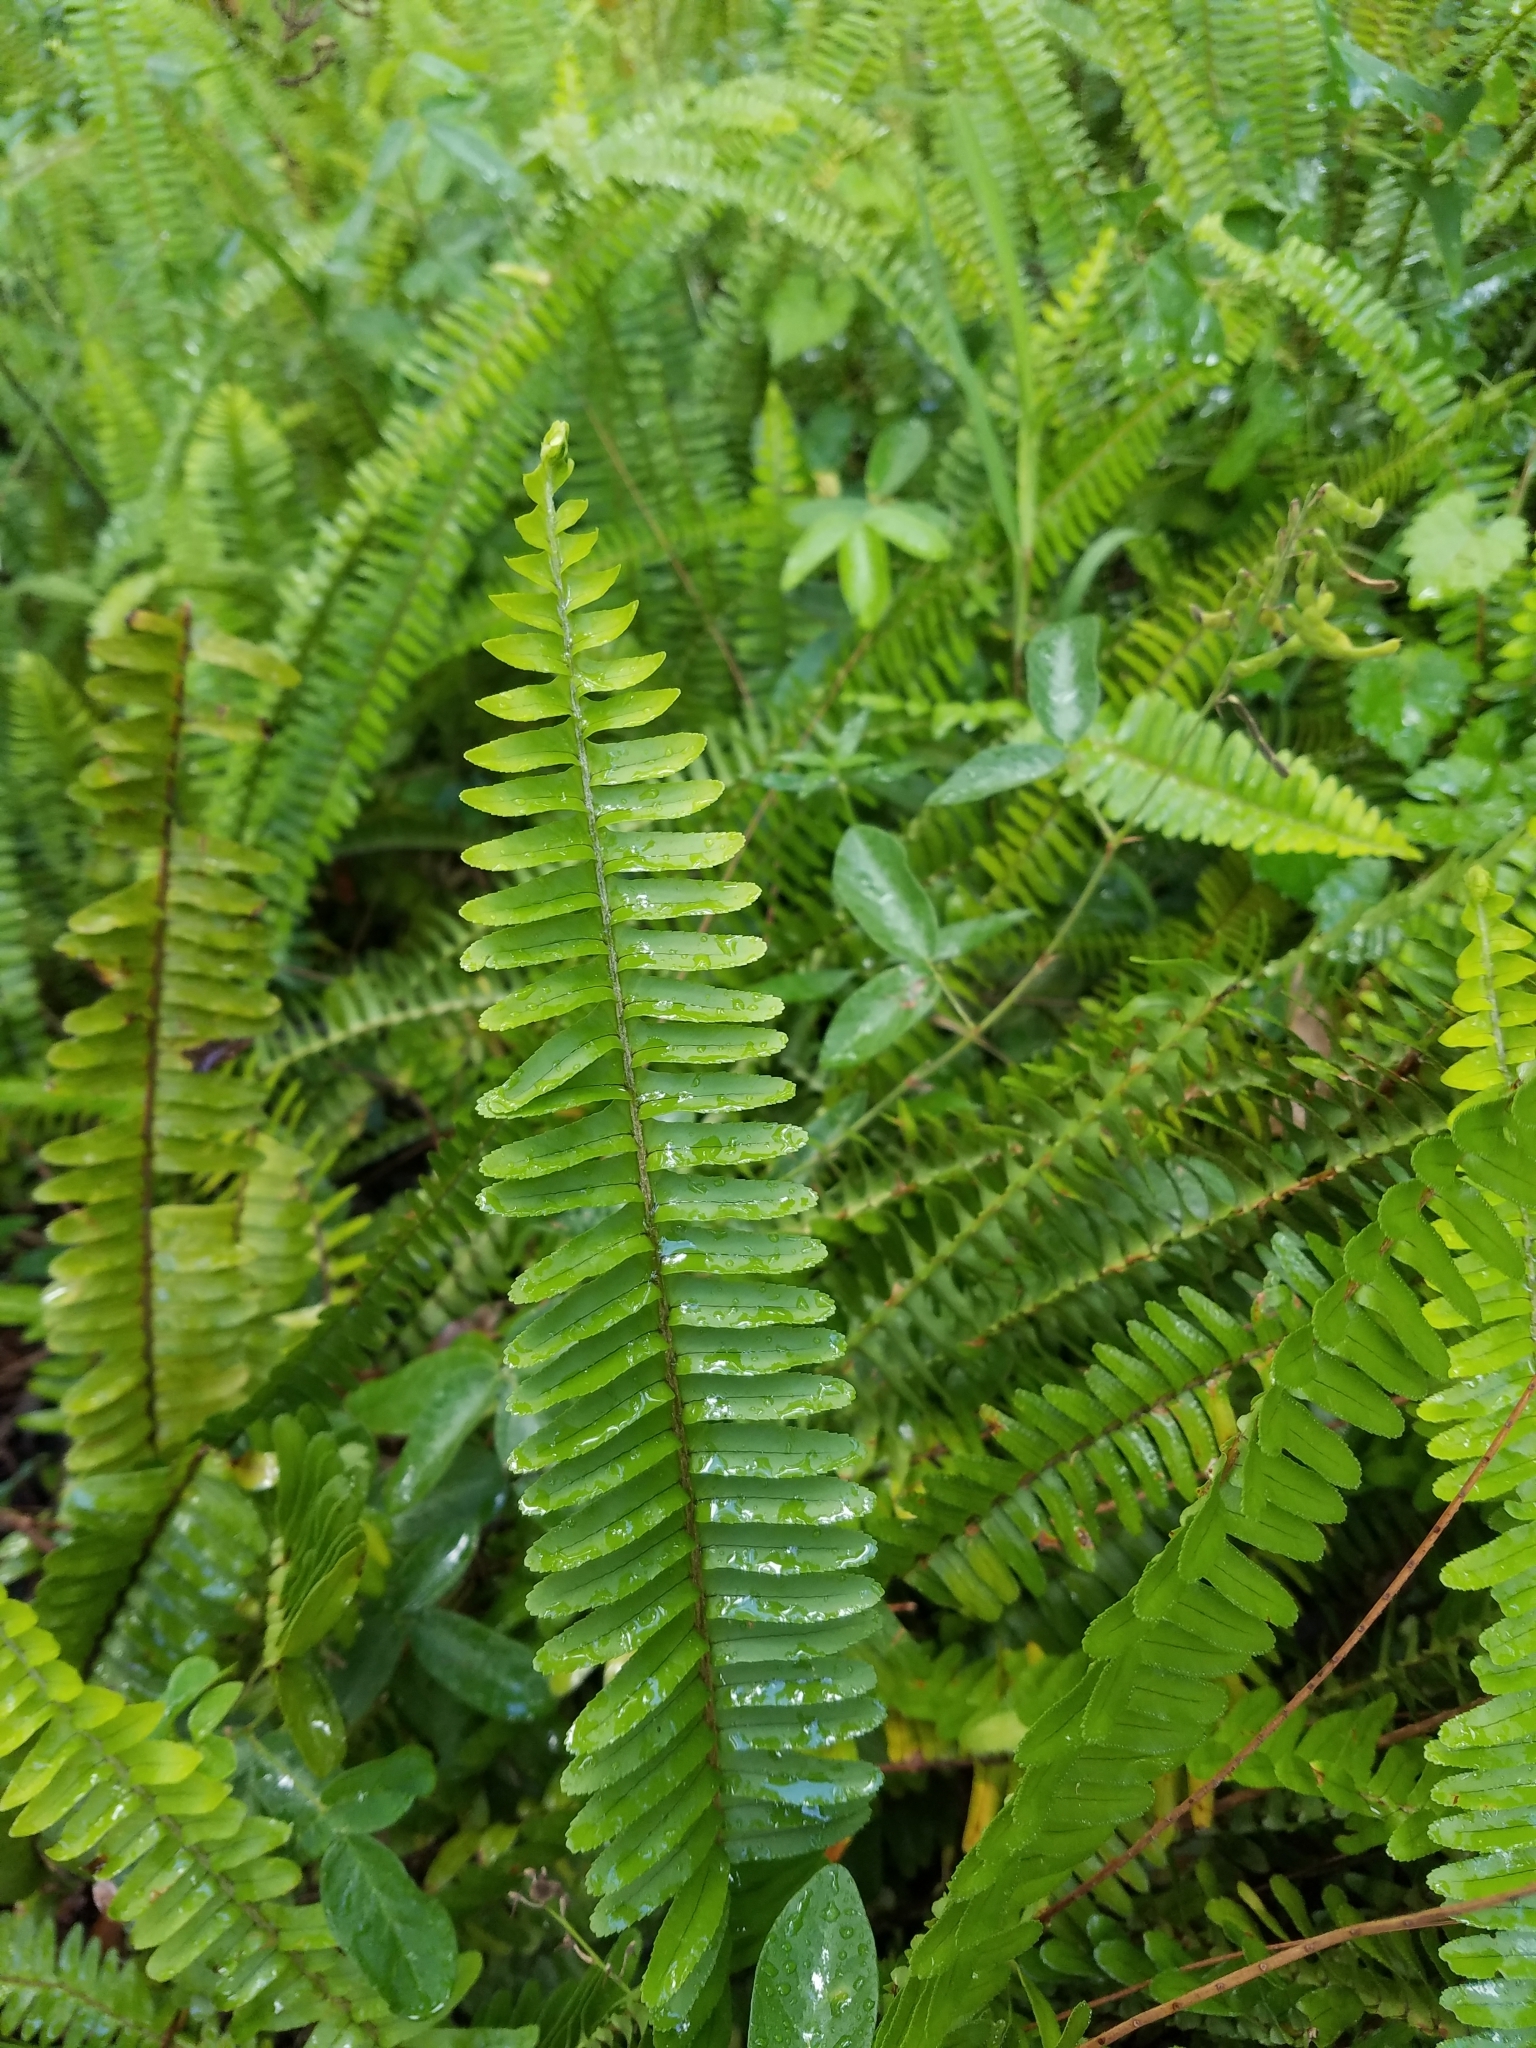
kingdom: Plantae
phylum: Tracheophyta
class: Polypodiopsida
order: Polypodiales
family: Nephrolepidaceae
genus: Nephrolepis
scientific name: Nephrolepis cordifolia
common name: Narrow swordfern
